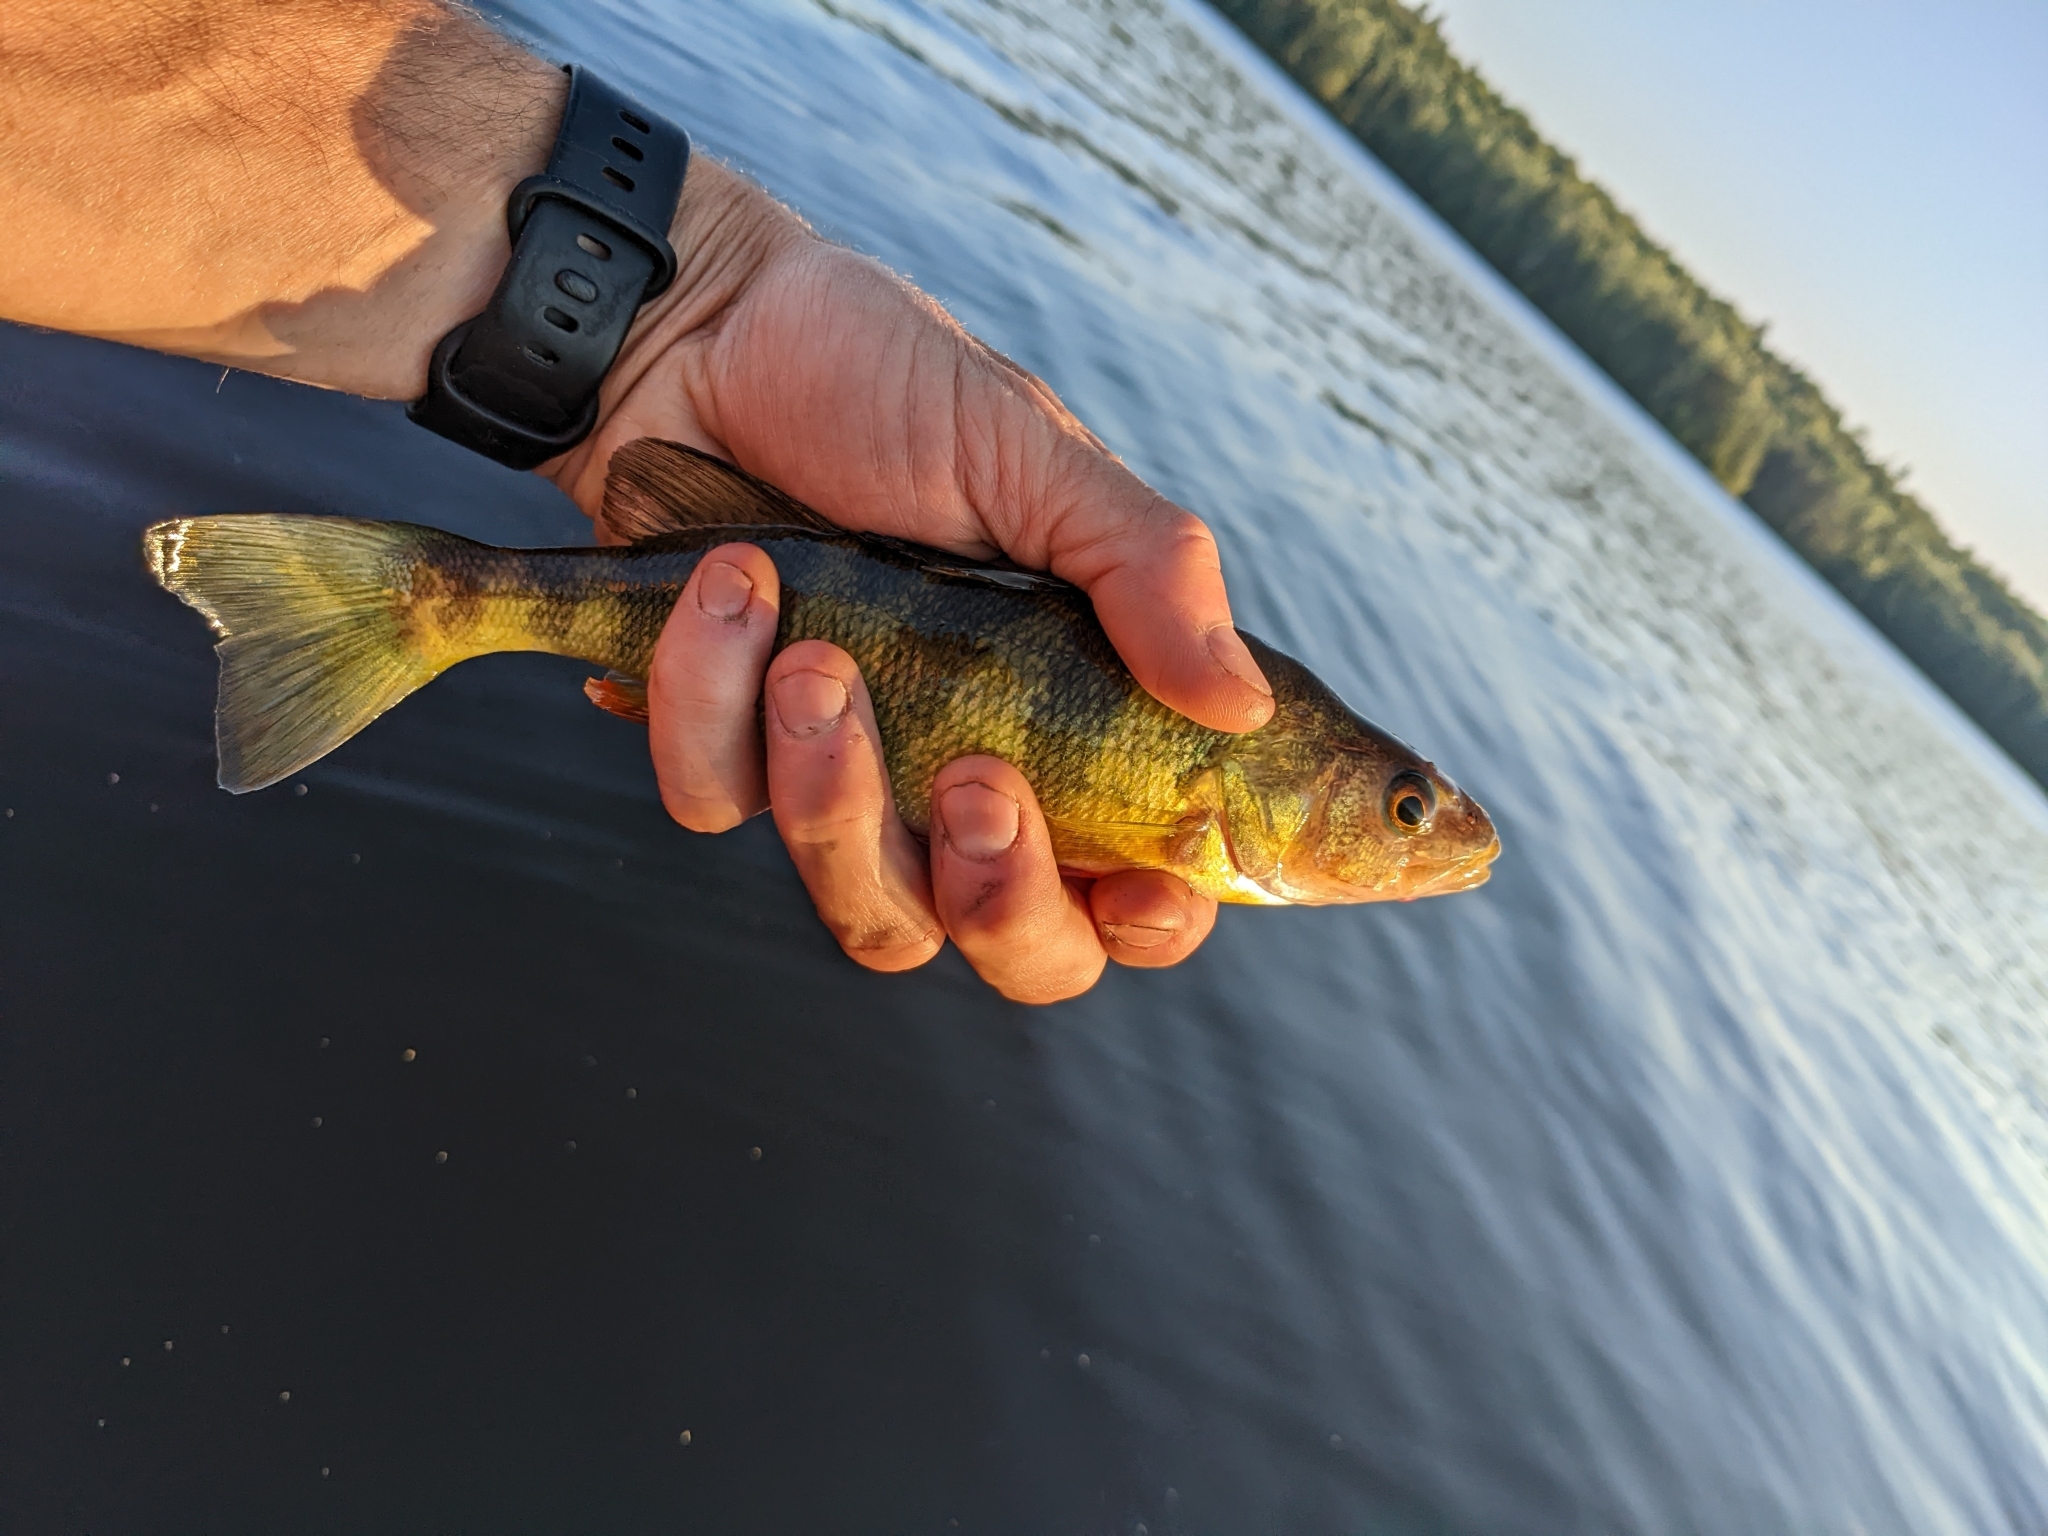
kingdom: Animalia
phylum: Chordata
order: Perciformes
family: Percidae
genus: Perca
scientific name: Perca flavescens
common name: Yellow perch
